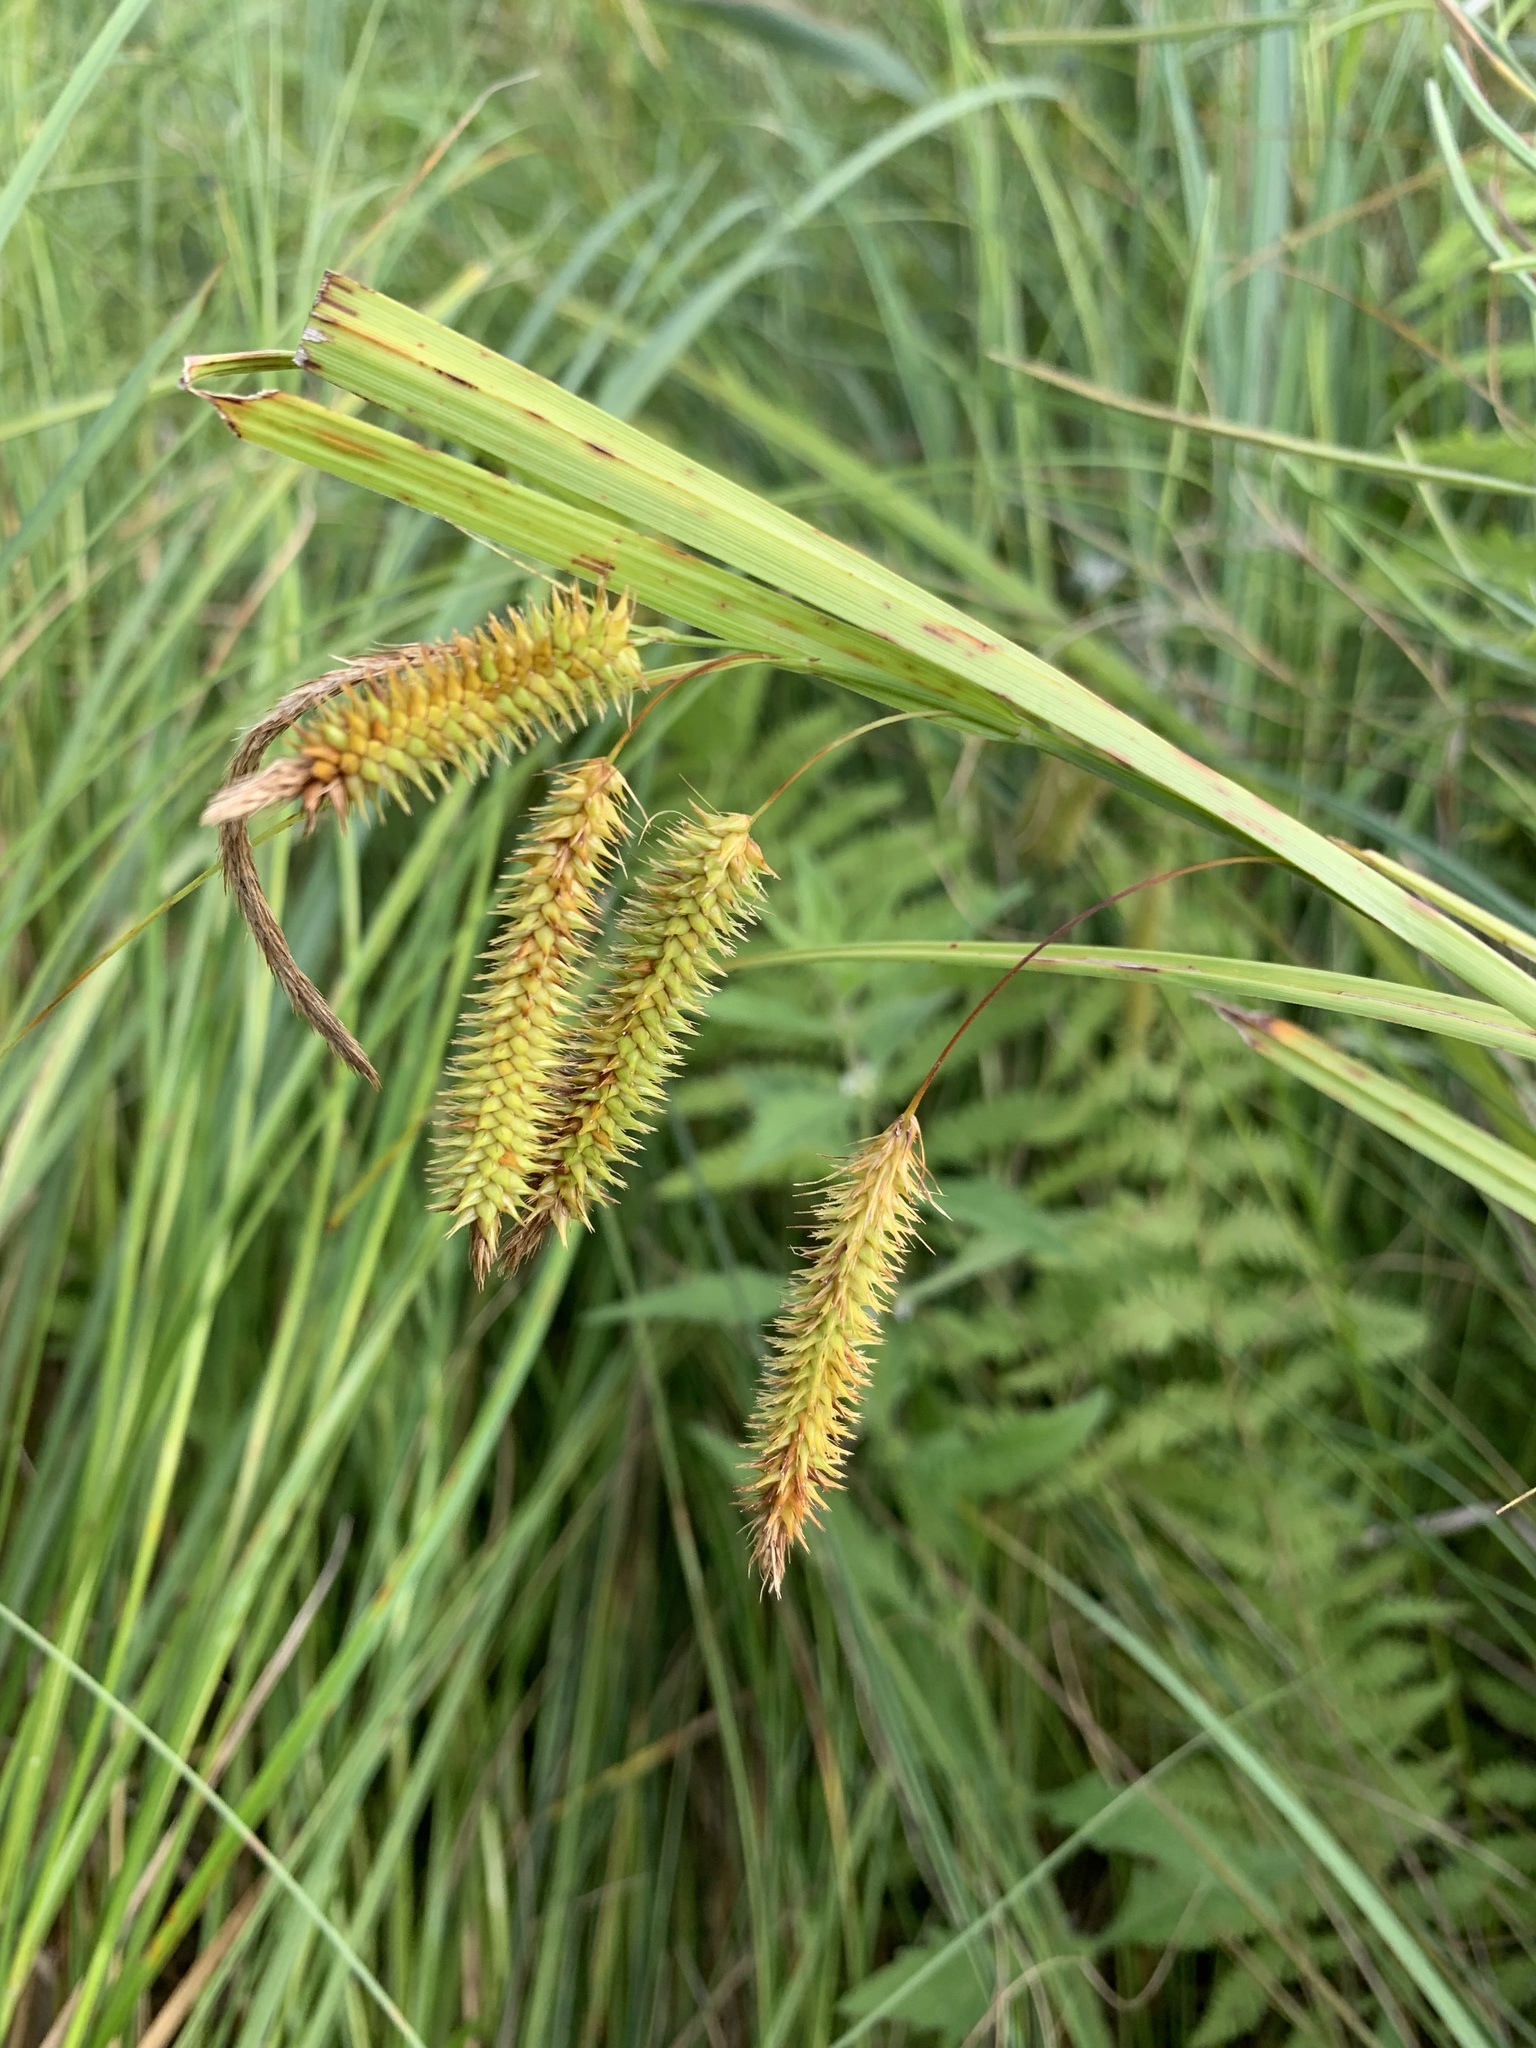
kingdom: Plantae
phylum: Tracheophyta
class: Liliopsida
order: Poales
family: Cyperaceae
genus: Carex
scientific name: Carex pseudocyperus
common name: Cyperus sedge
